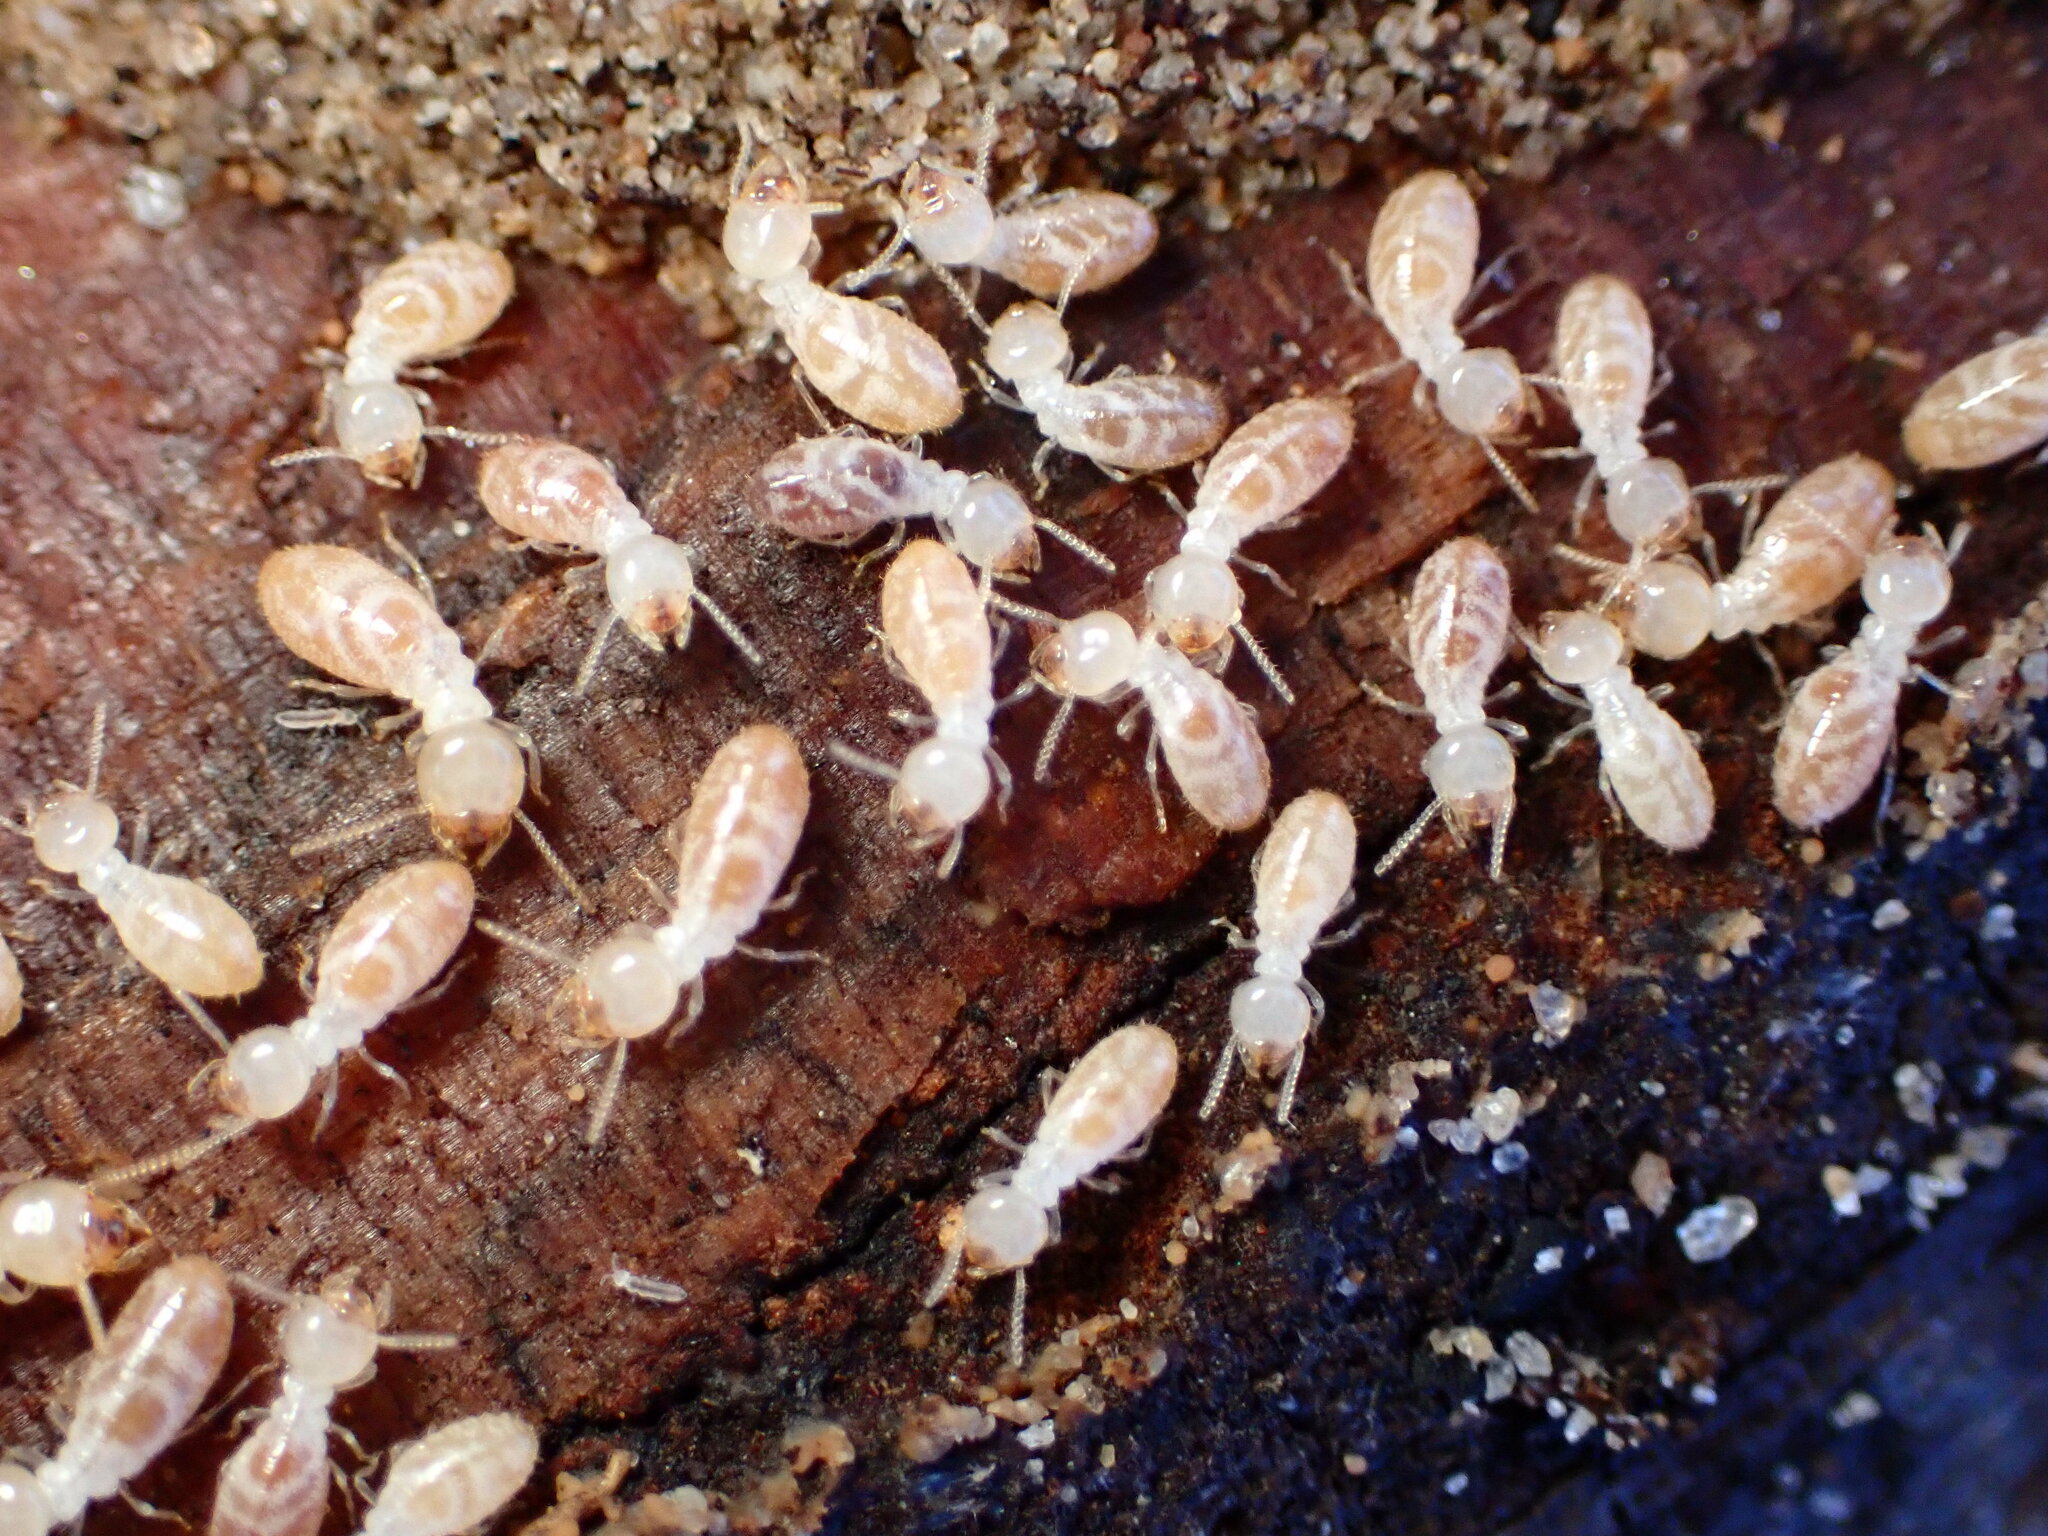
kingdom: Animalia
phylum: Arthropoda
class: Insecta
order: Blattodea
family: Rhinotermitidae
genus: Reticulitermes
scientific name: Reticulitermes hesperus
